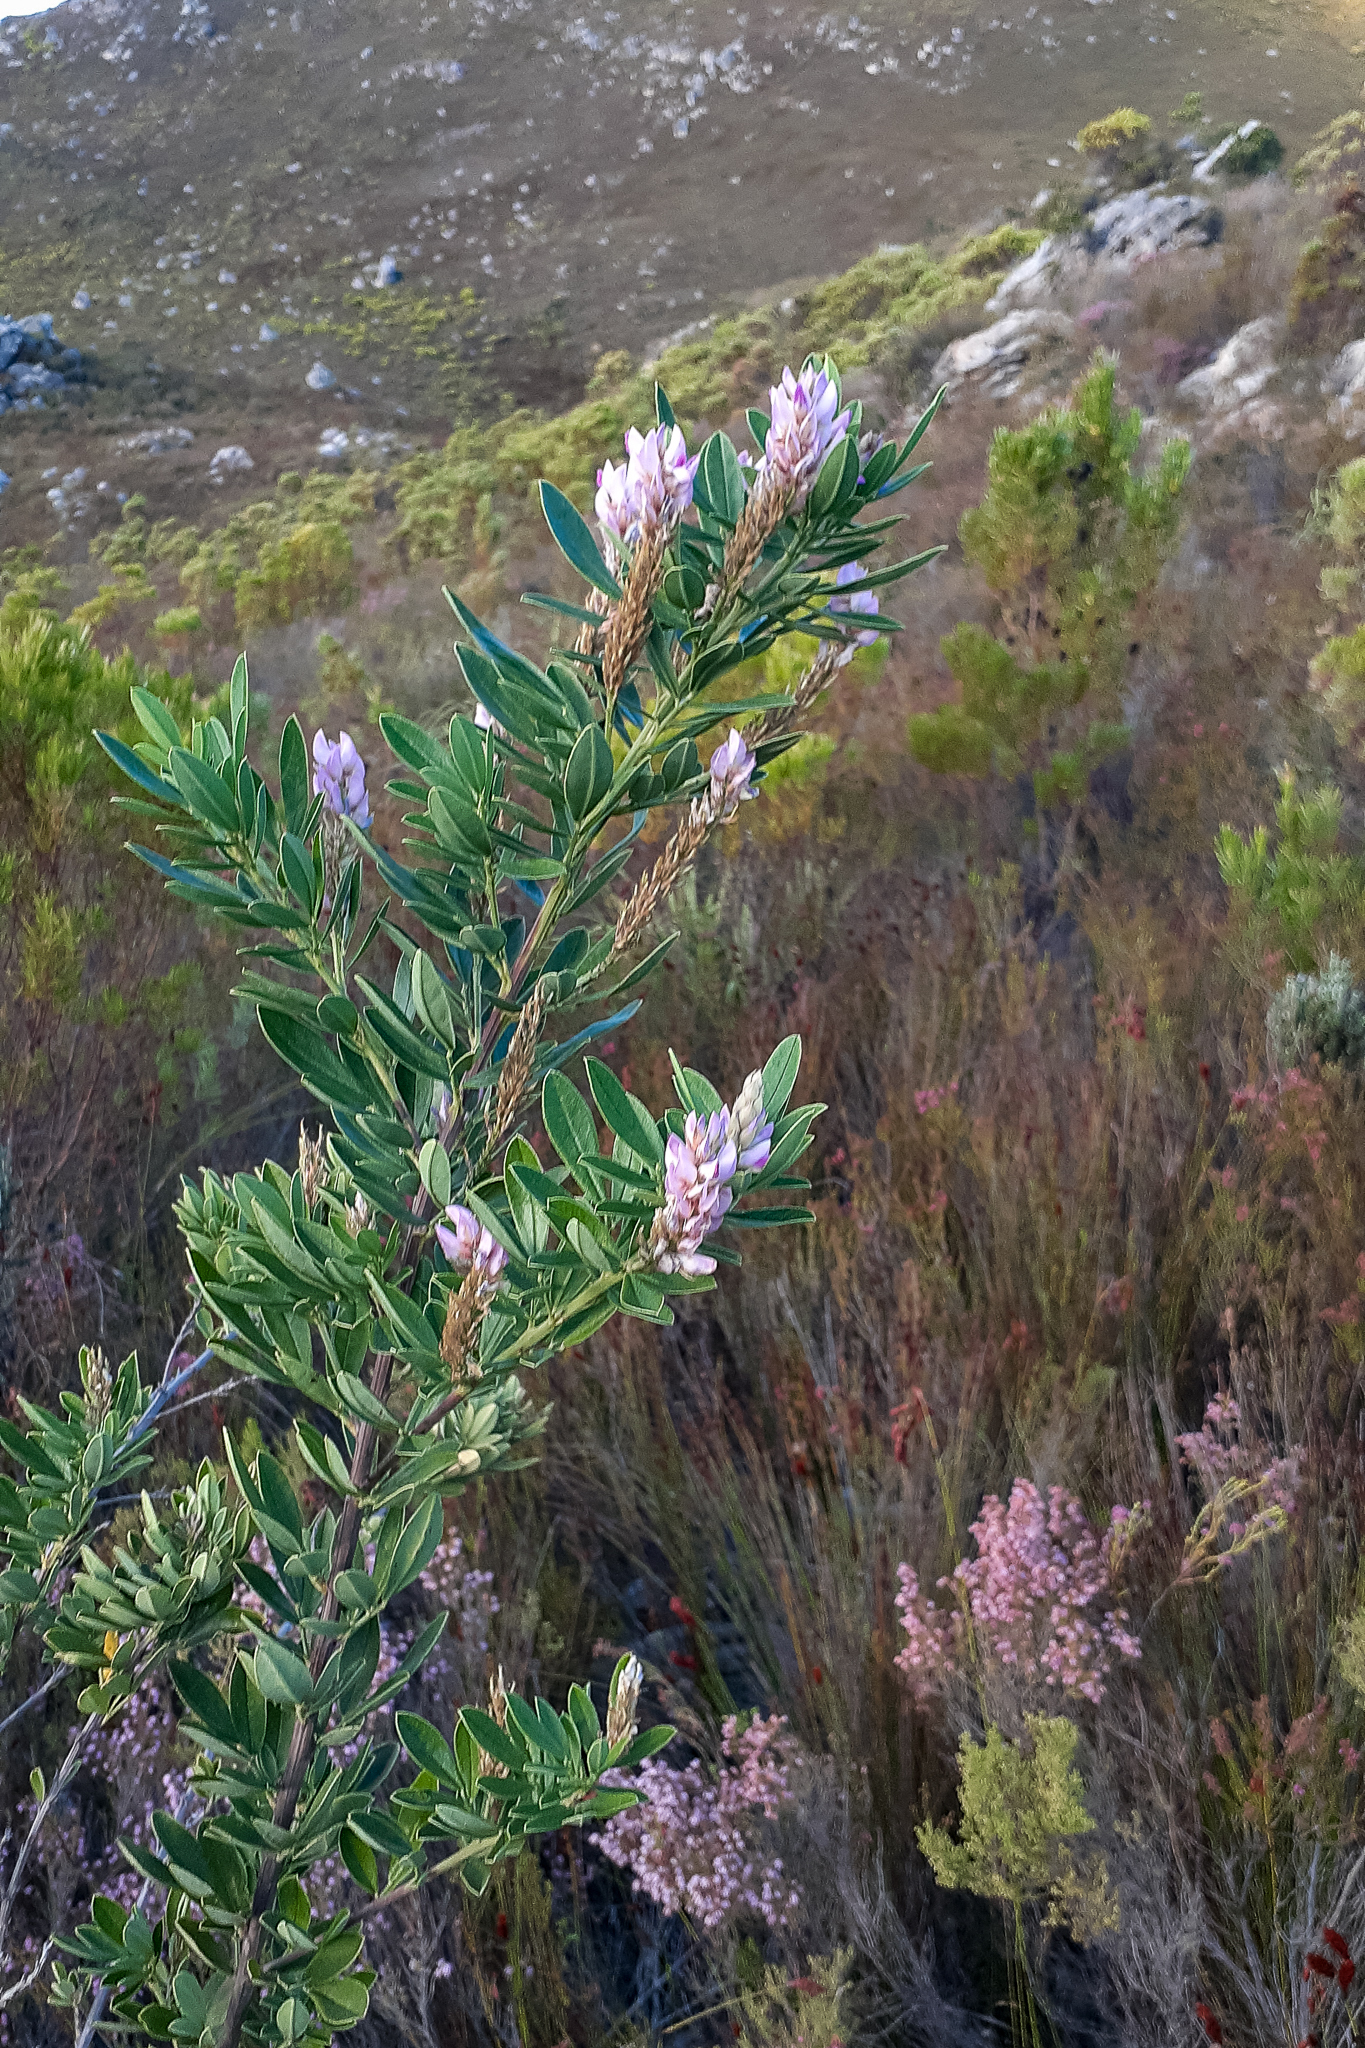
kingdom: Plantae
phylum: Tracheophyta
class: Magnoliopsida
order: Fabales
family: Fabaceae
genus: Indigofera
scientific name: Indigofera cytisoides
